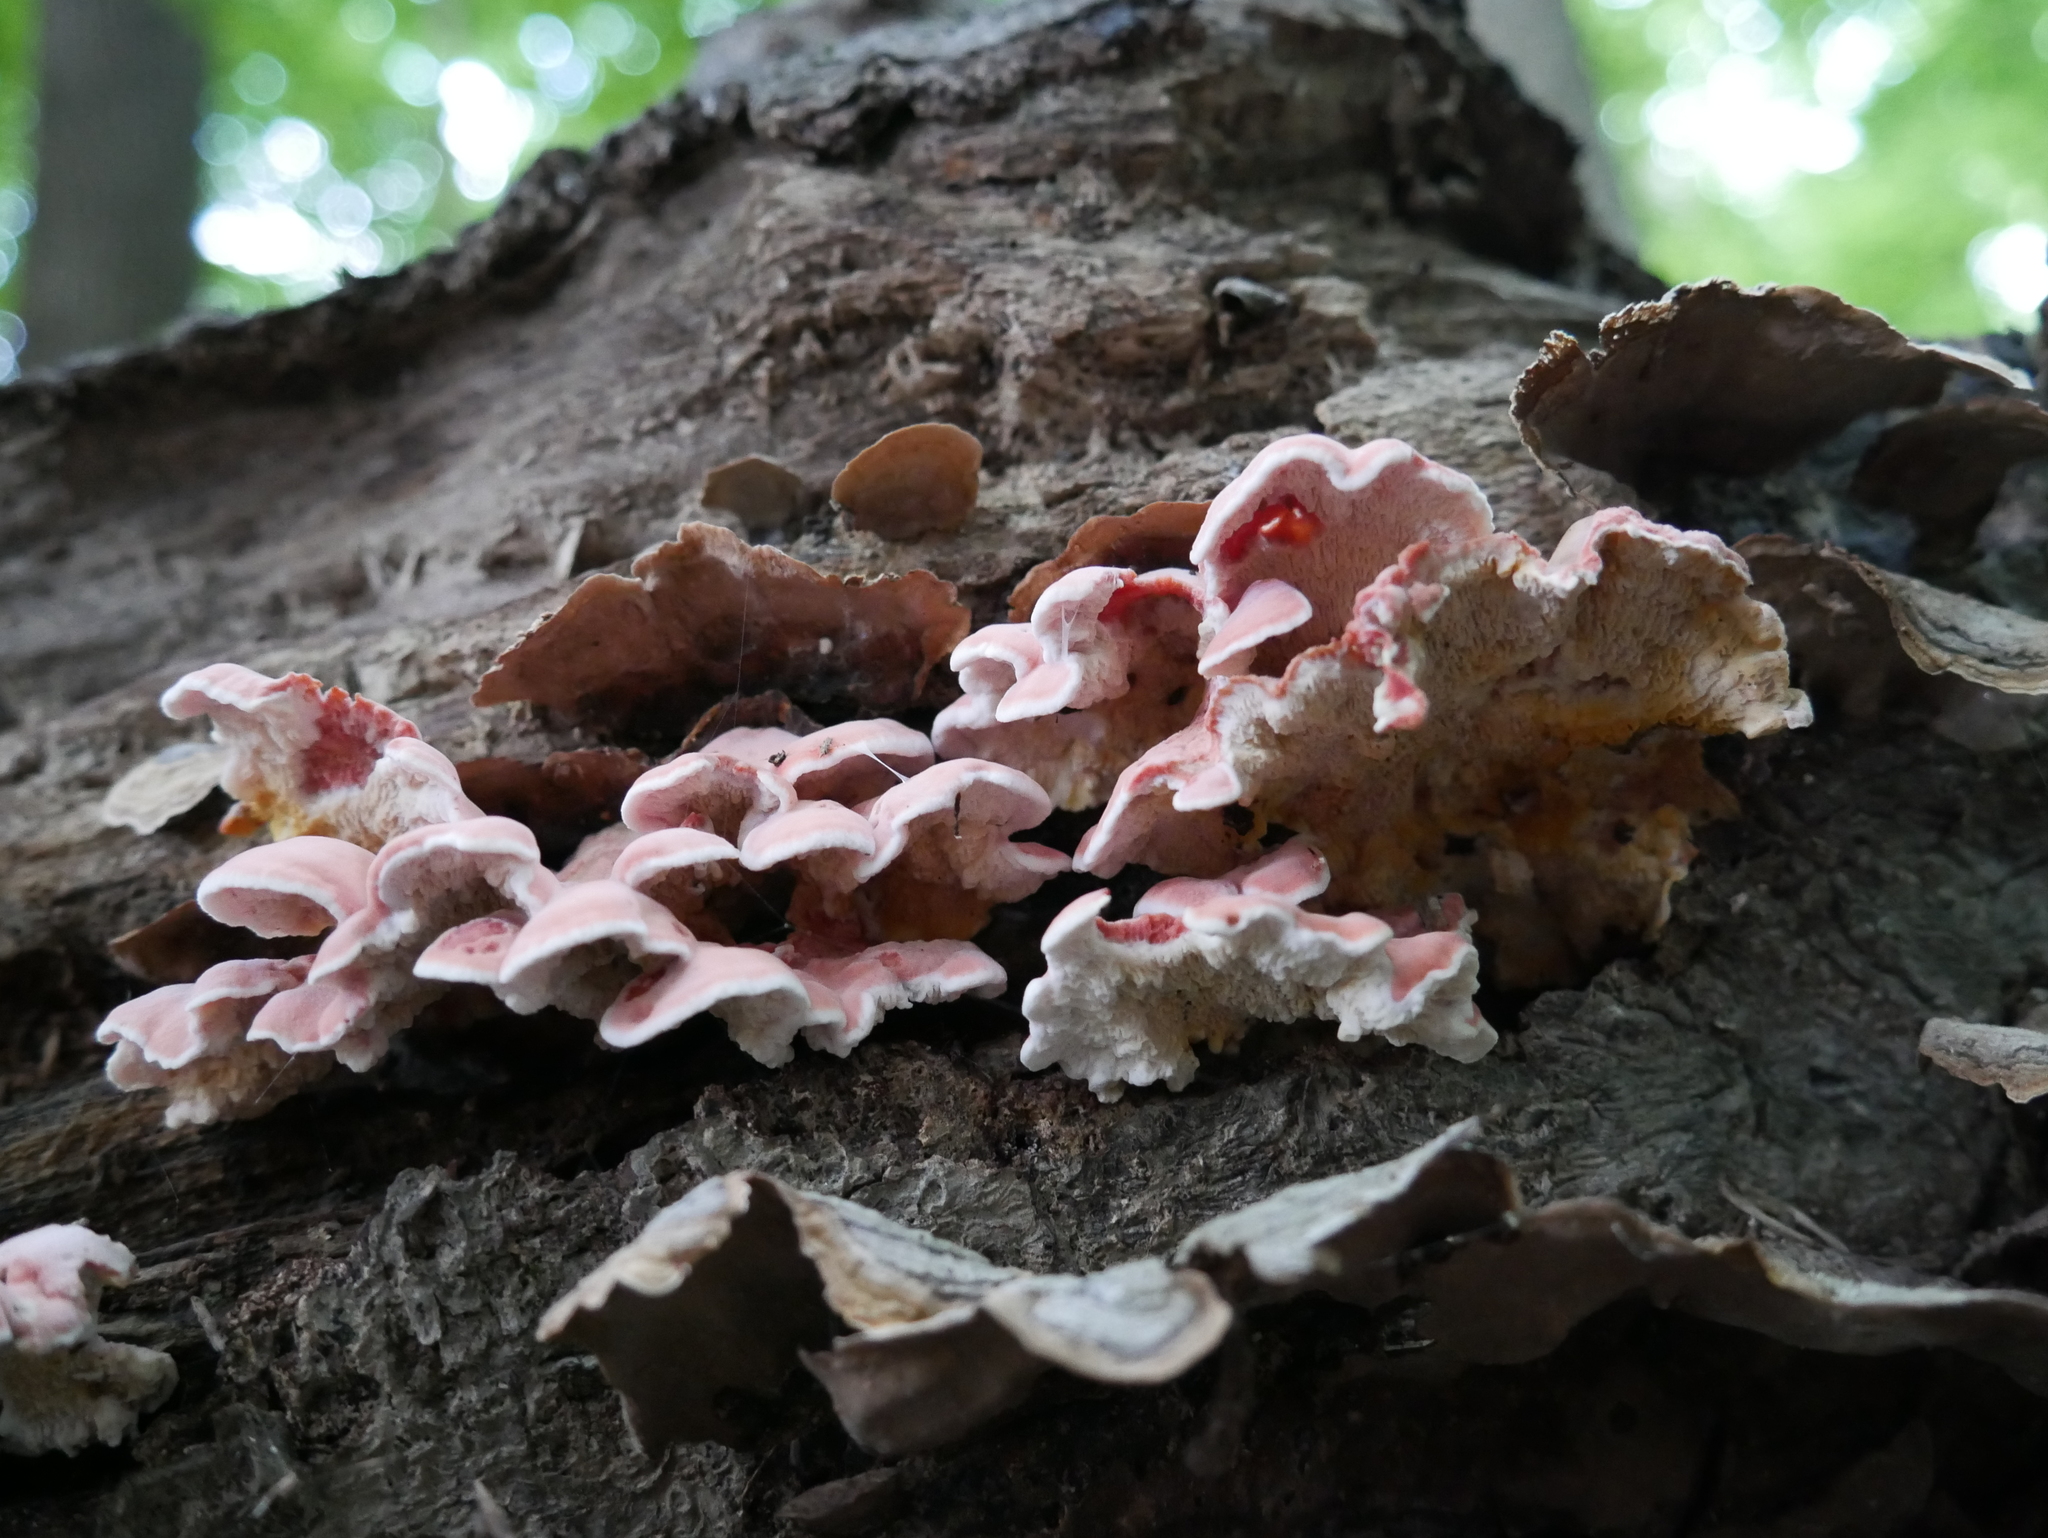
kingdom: Fungi
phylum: Basidiomycota
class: Agaricomycetes
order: Polyporales
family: Irpicaceae
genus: Byssomerulius
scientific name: Byssomerulius incarnatus
